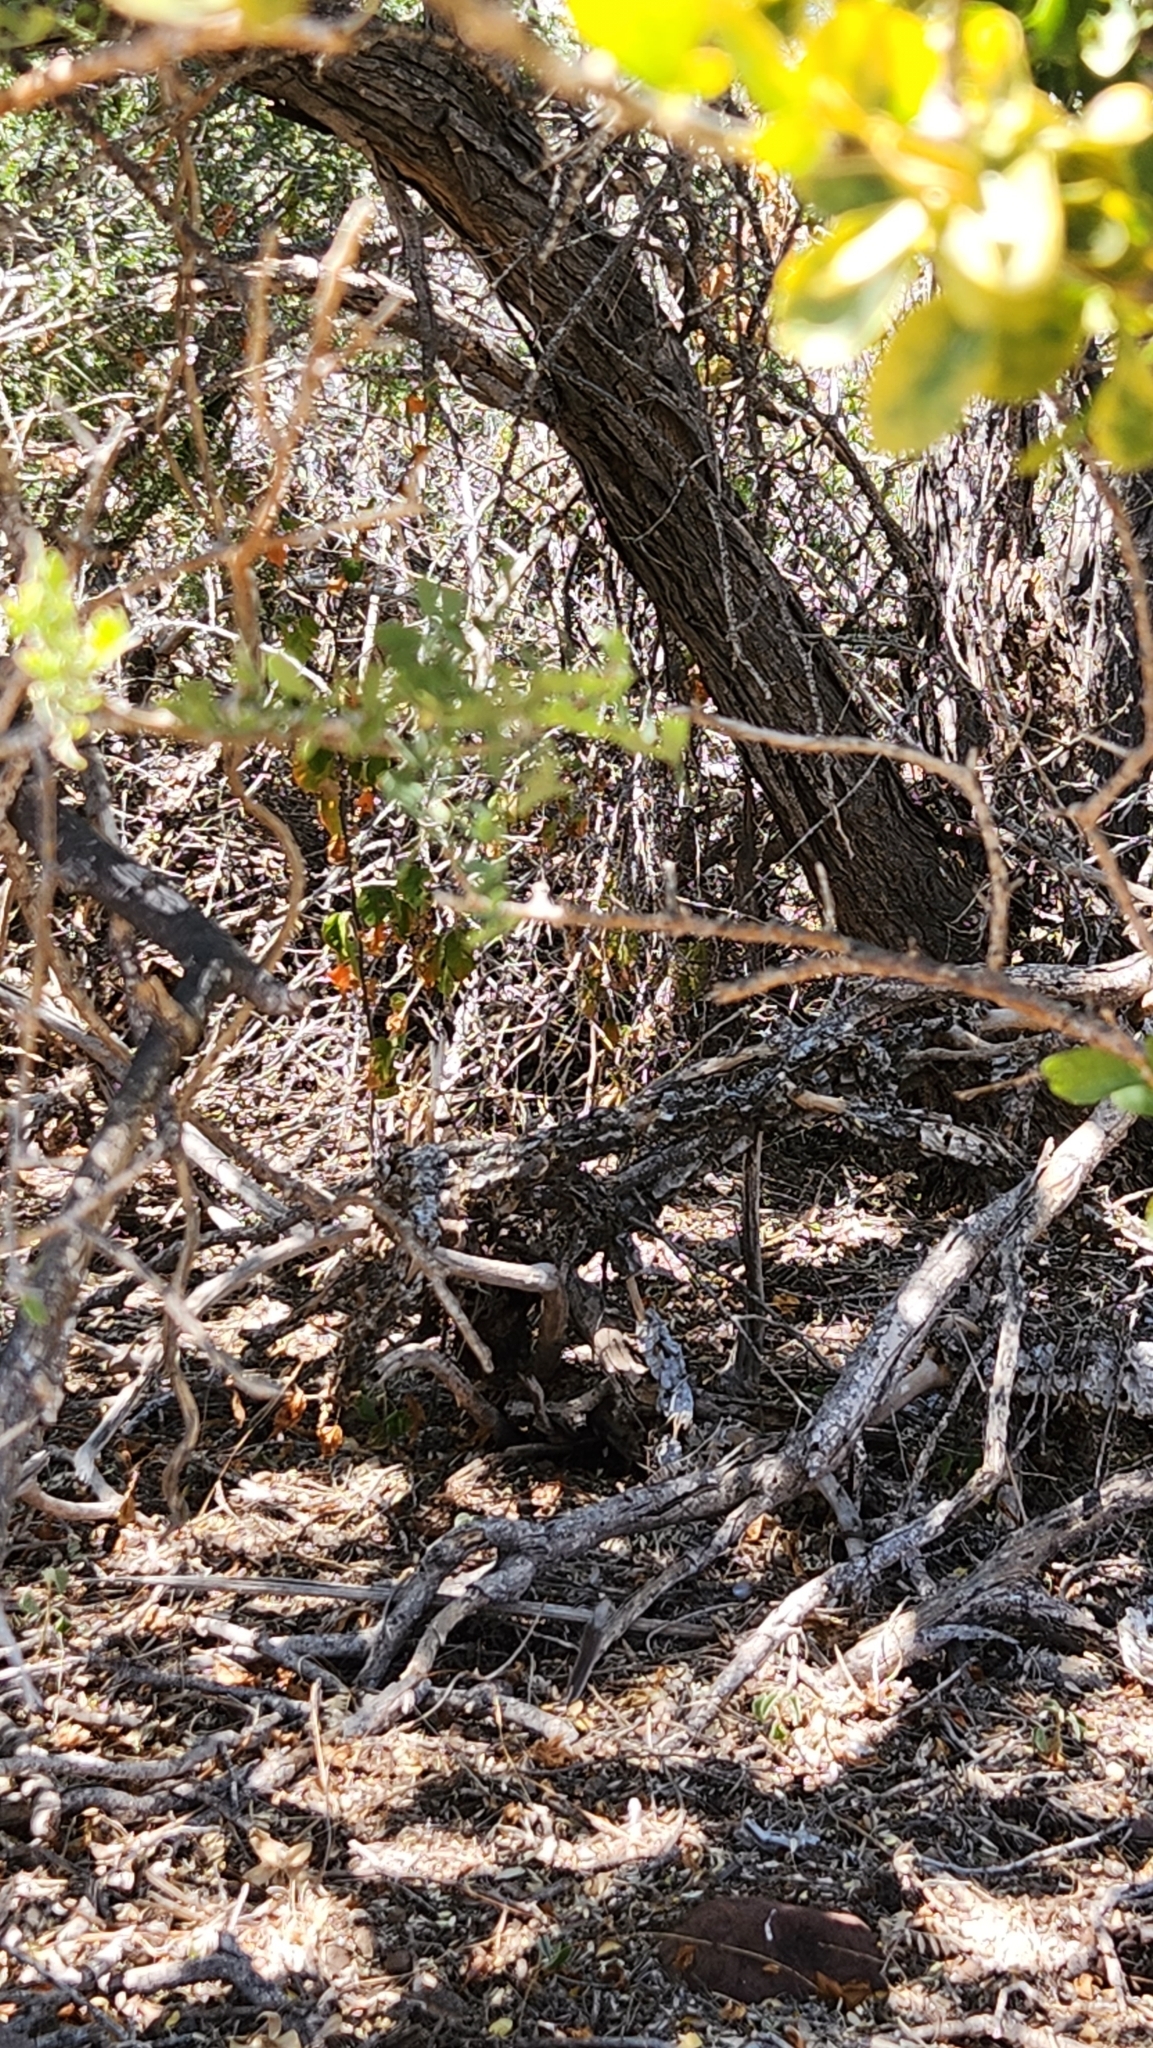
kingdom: Plantae
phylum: Tracheophyta
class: Magnoliopsida
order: Fabales
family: Fabaceae
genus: Olneya
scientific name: Olneya tesota
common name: Desert ironwood
